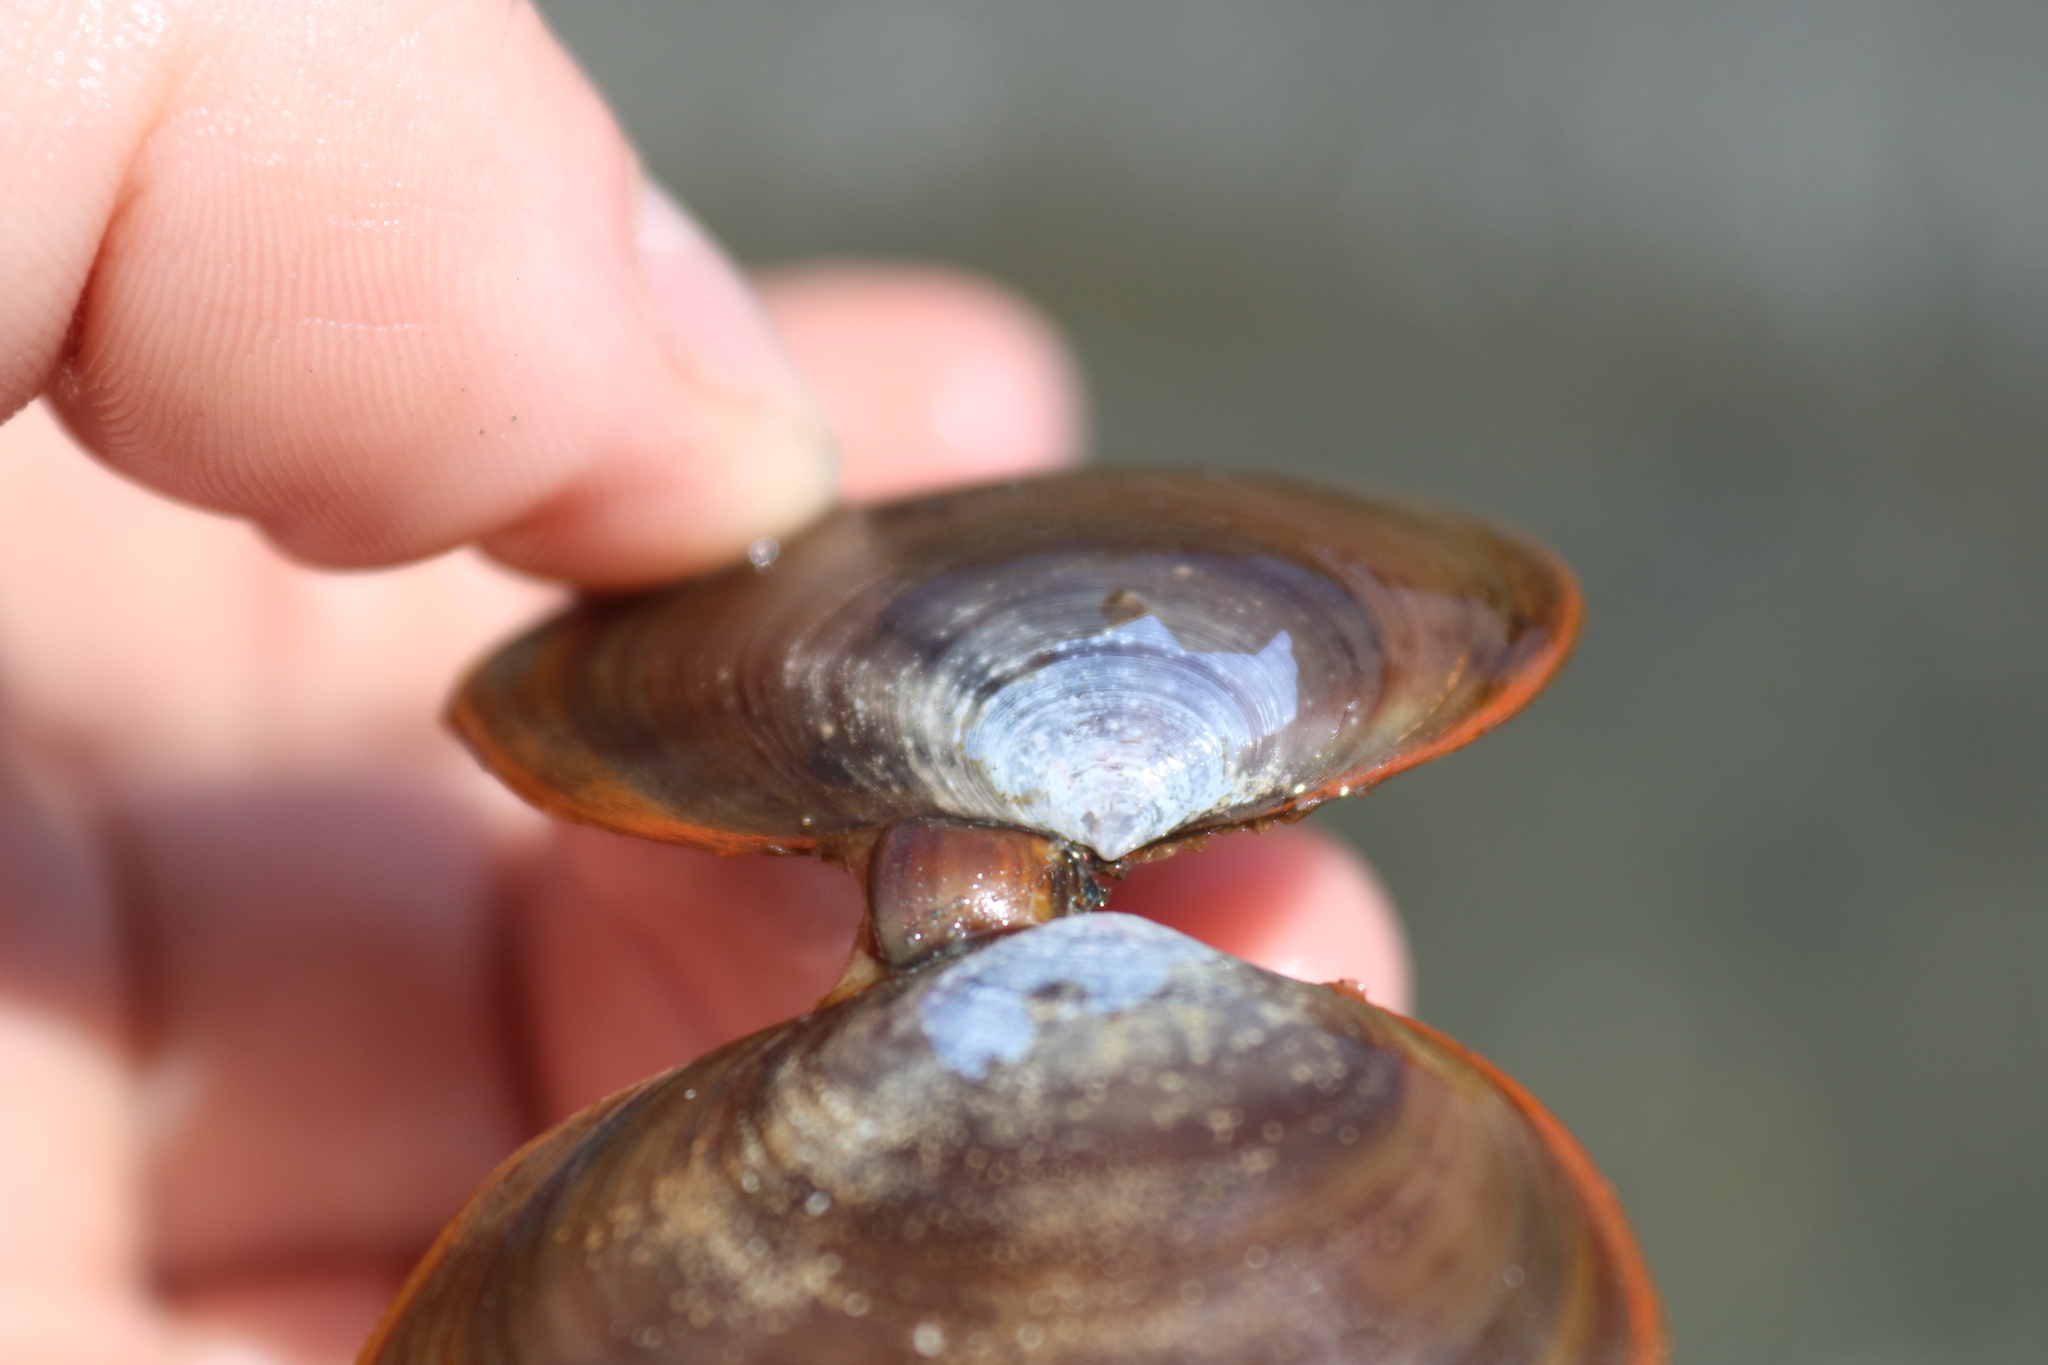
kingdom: Animalia
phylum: Mollusca
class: Bivalvia
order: Cardiida
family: Psammobiidae
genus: Nuttallia
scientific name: Nuttallia obscurata
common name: Purple mahogany-clam
